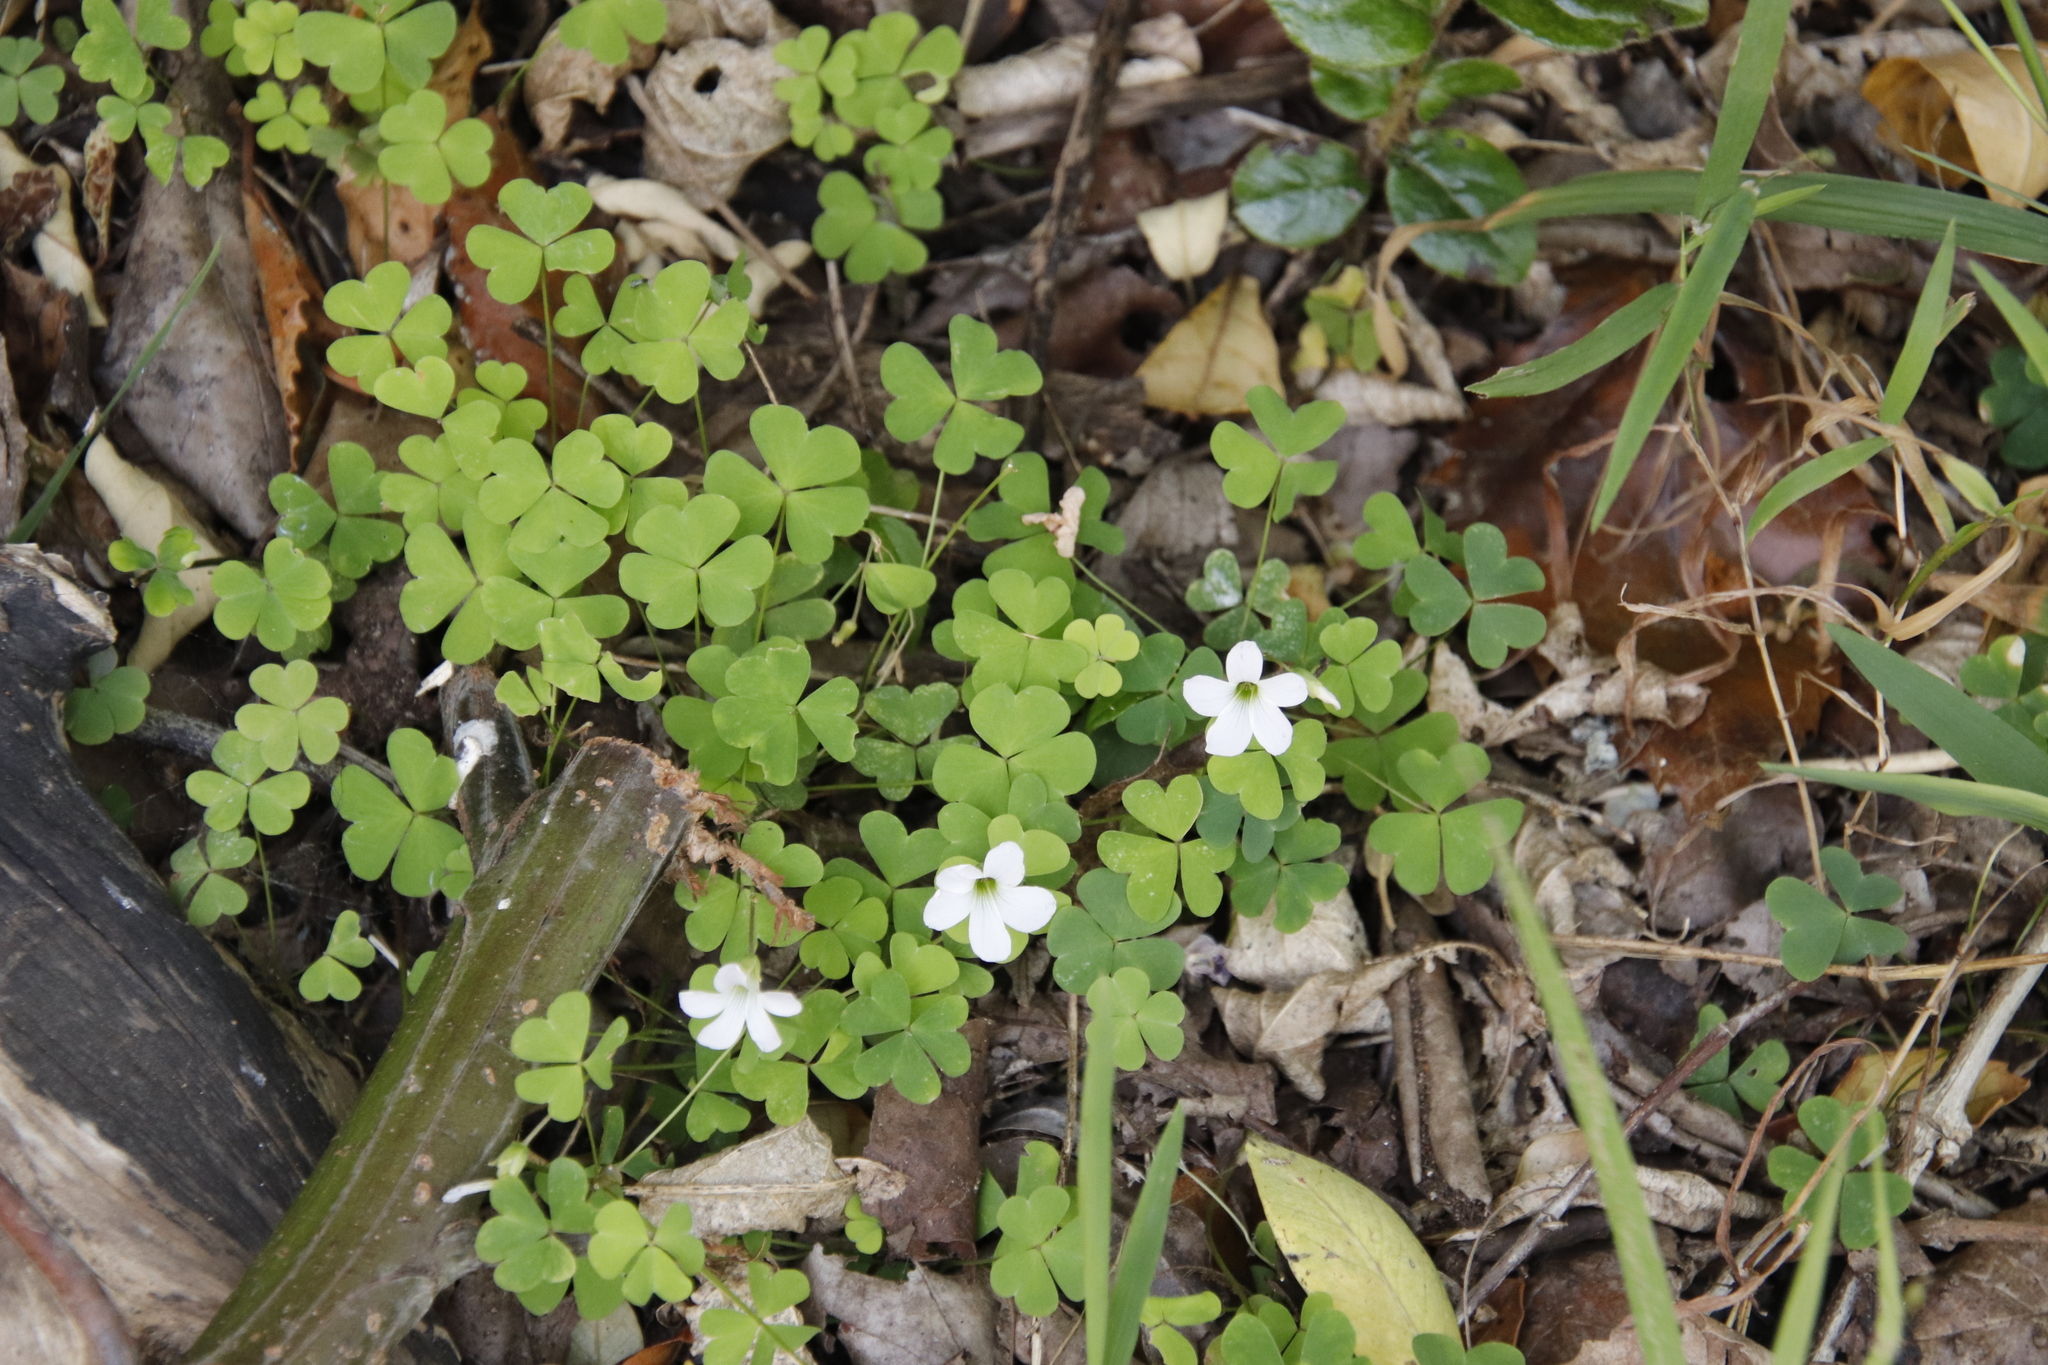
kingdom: Plantae
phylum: Tracheophyta
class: Magnoliopsida
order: Oxalidales
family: Oxalidaceae
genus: Oxalis
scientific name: Oxalis incarnata
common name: Pale pink-sorrel
